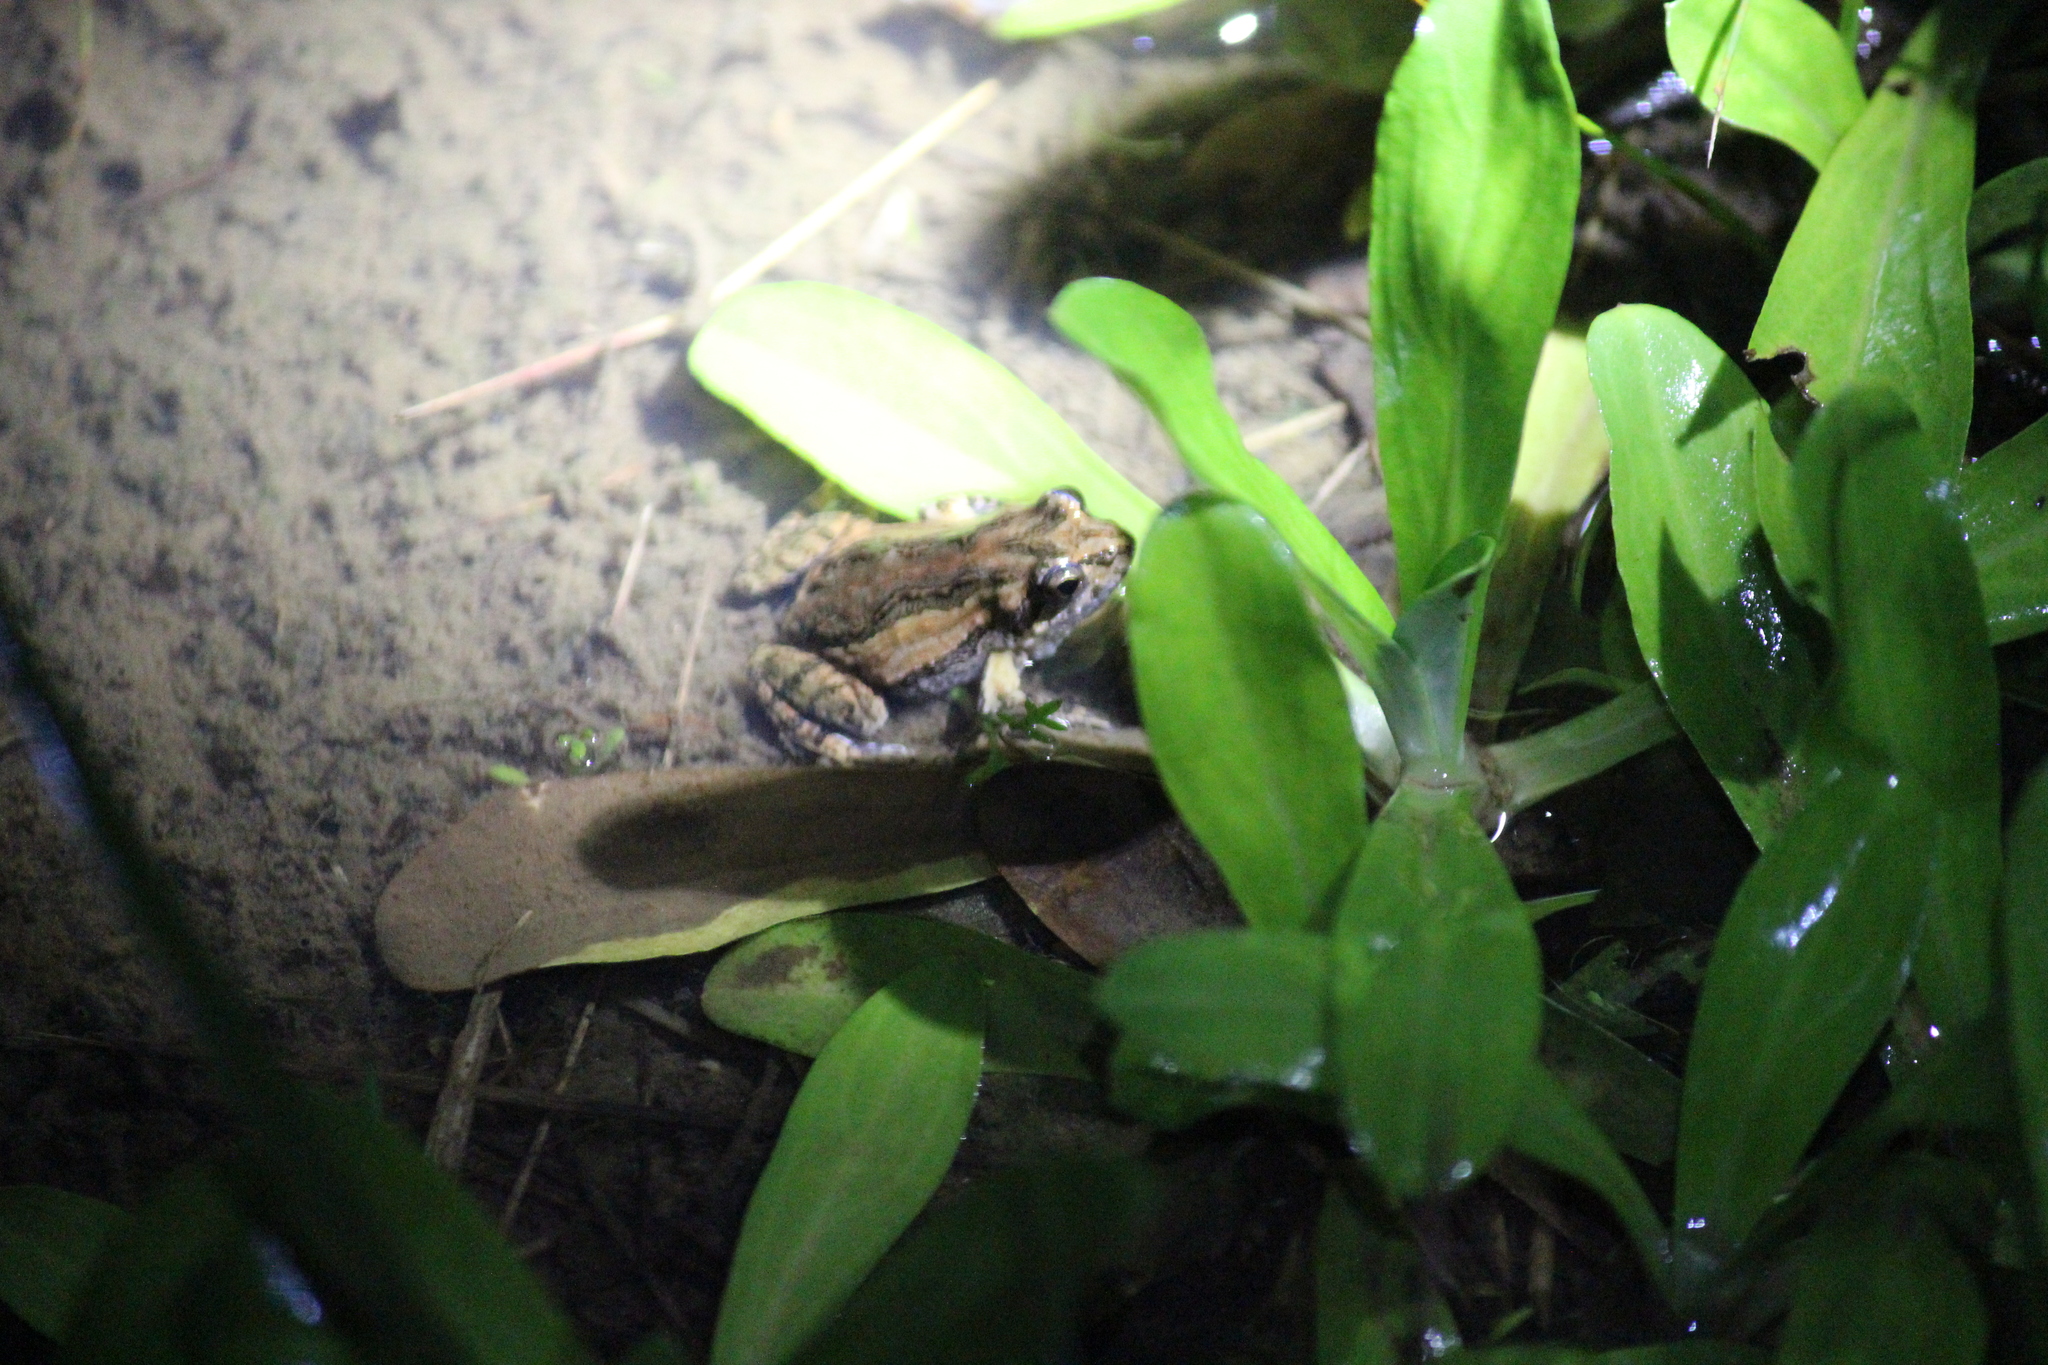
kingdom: Animalia
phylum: Chordata
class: Amphibia
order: Anura
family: Myobatrachidae
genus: Crinia
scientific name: Crinia signifera
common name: Brown froglet
